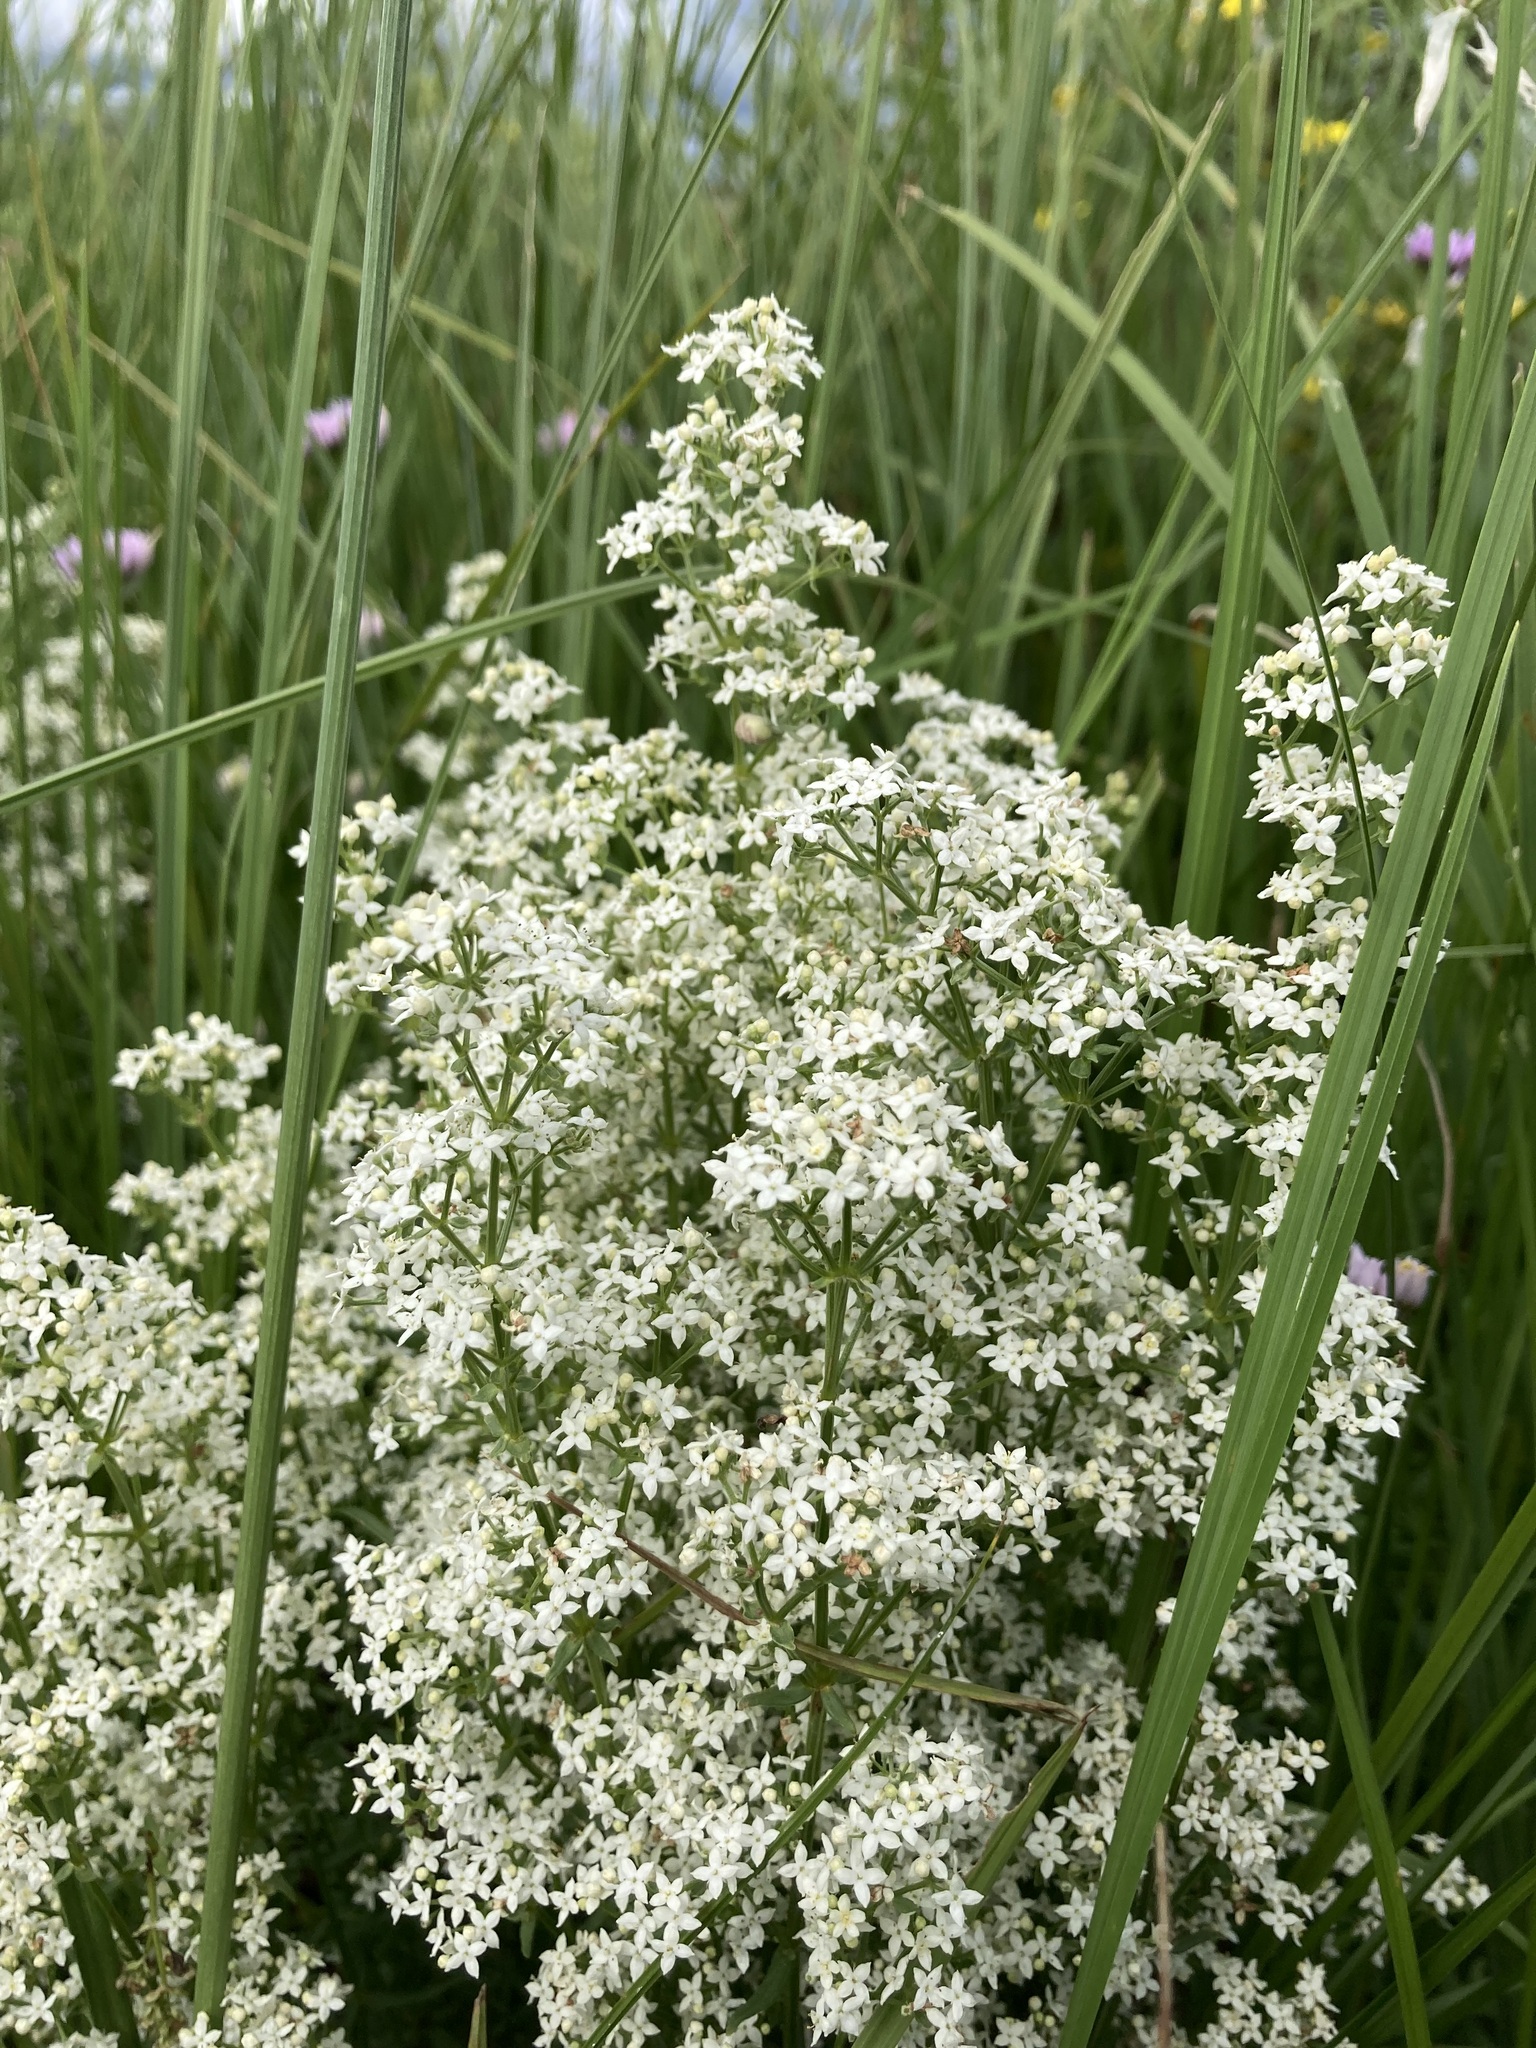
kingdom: Plantae
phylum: Tracheophyta
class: Magnoliopsida
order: Gentianales
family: Rubiaceae
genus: Galium
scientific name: Galium boreale
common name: Northern bedstraw
